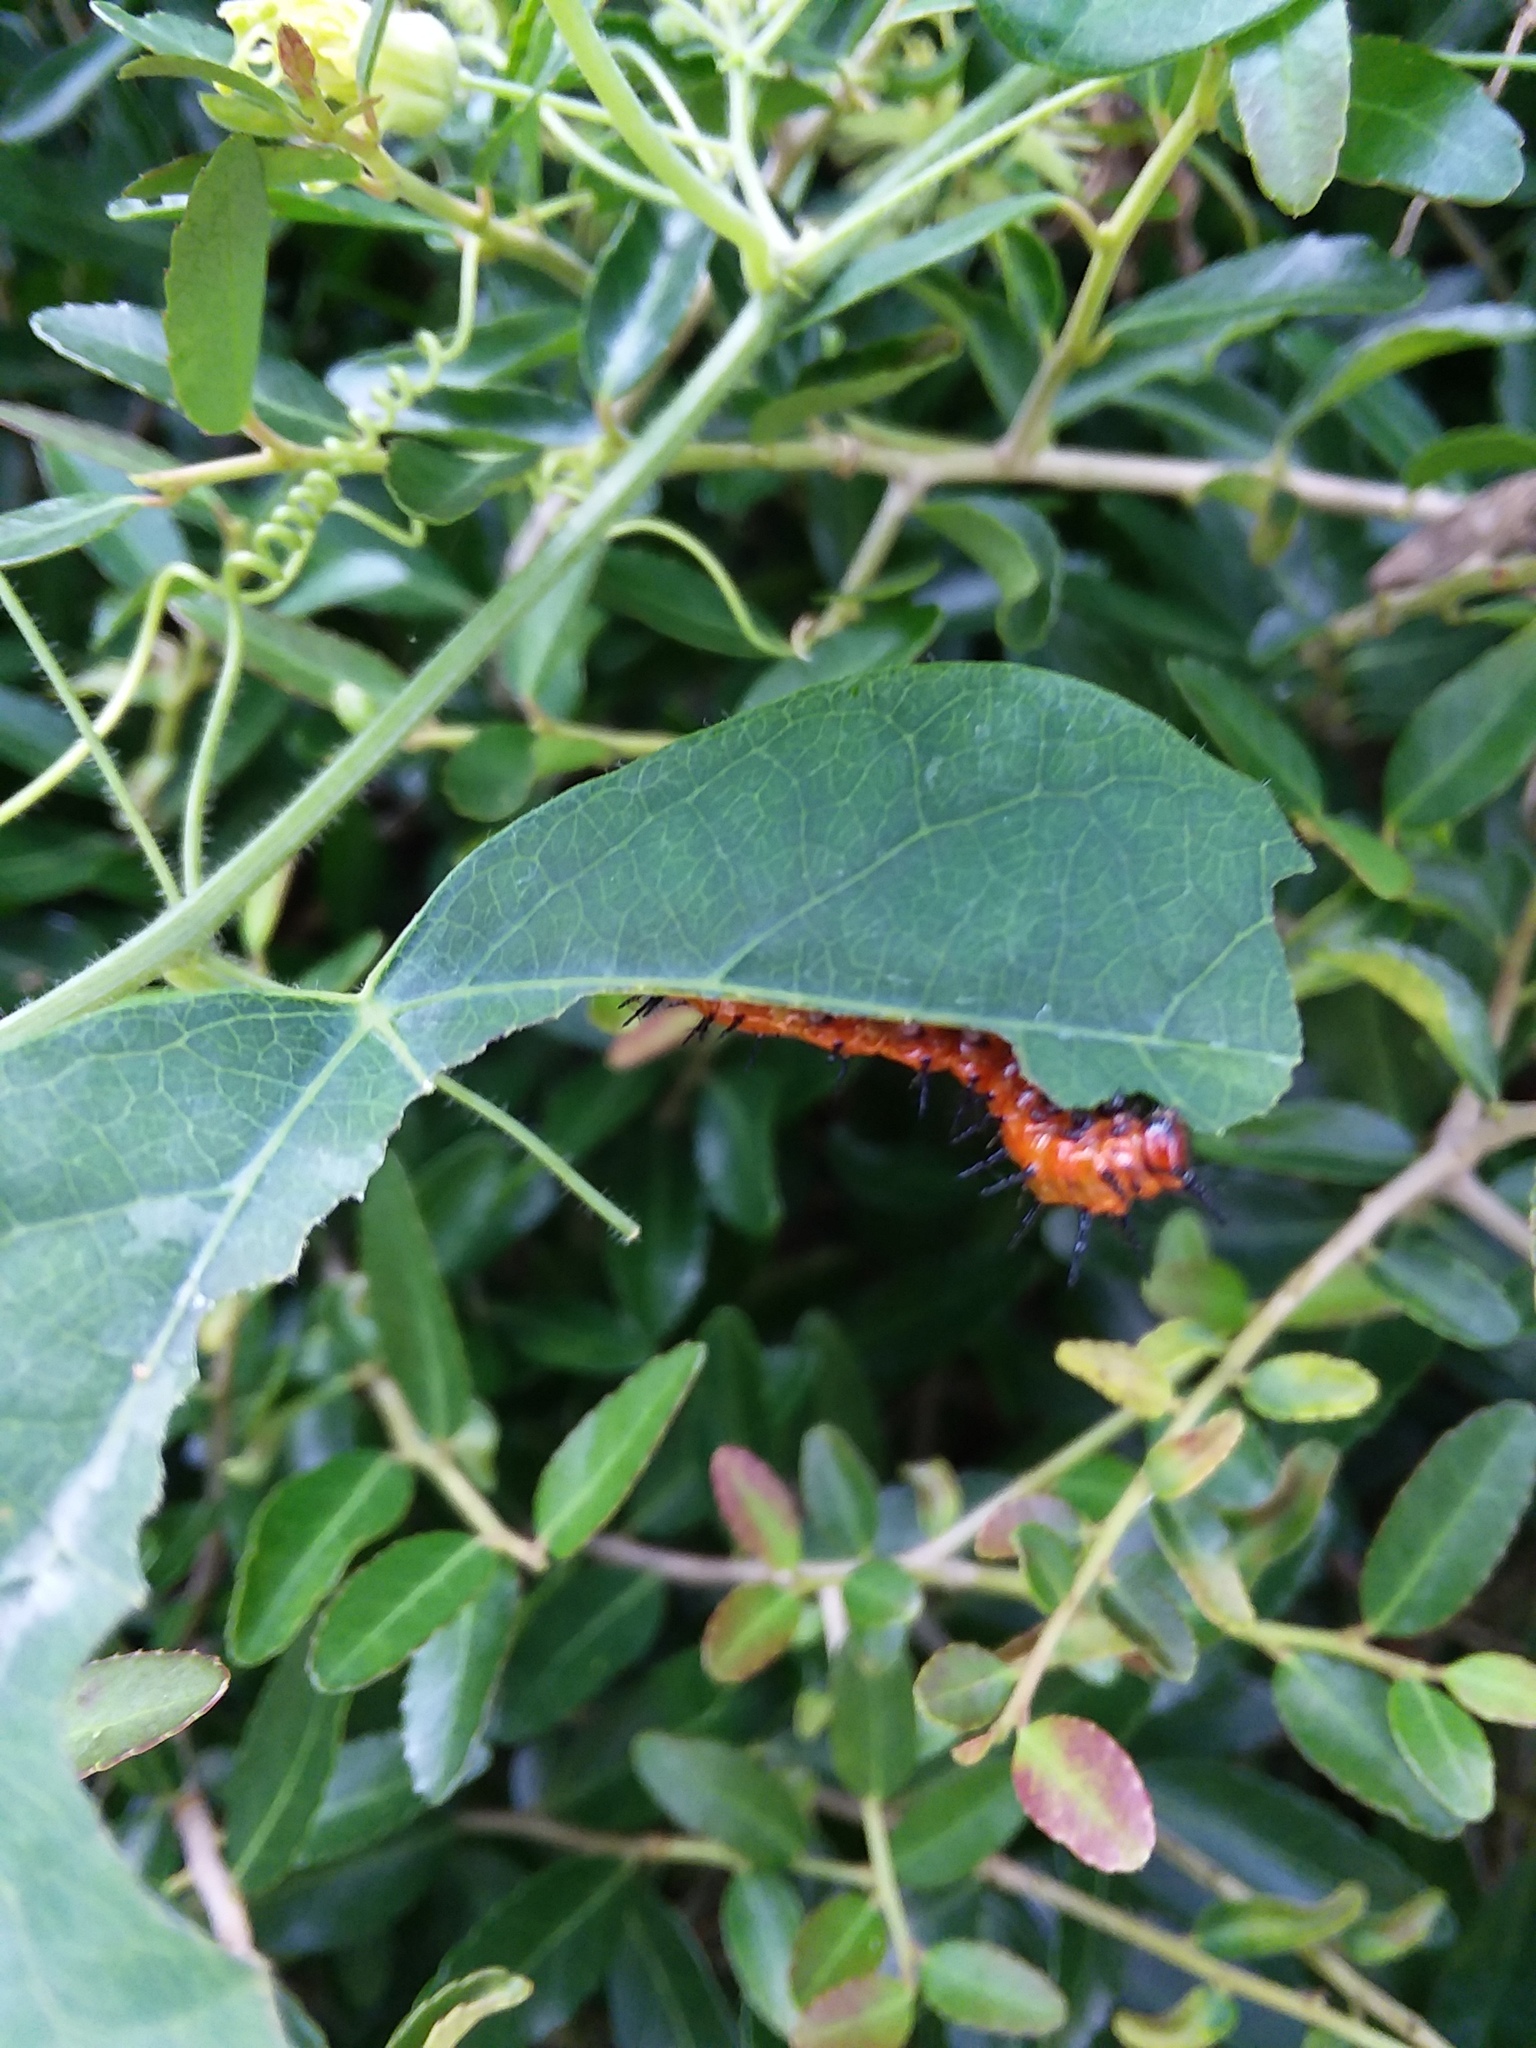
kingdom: Animalia
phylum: Arthropoda
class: Insecta
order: Lepidoptera
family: Nymphalidae
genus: Dione
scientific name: Dione vanillae
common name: Gulf fritillary
